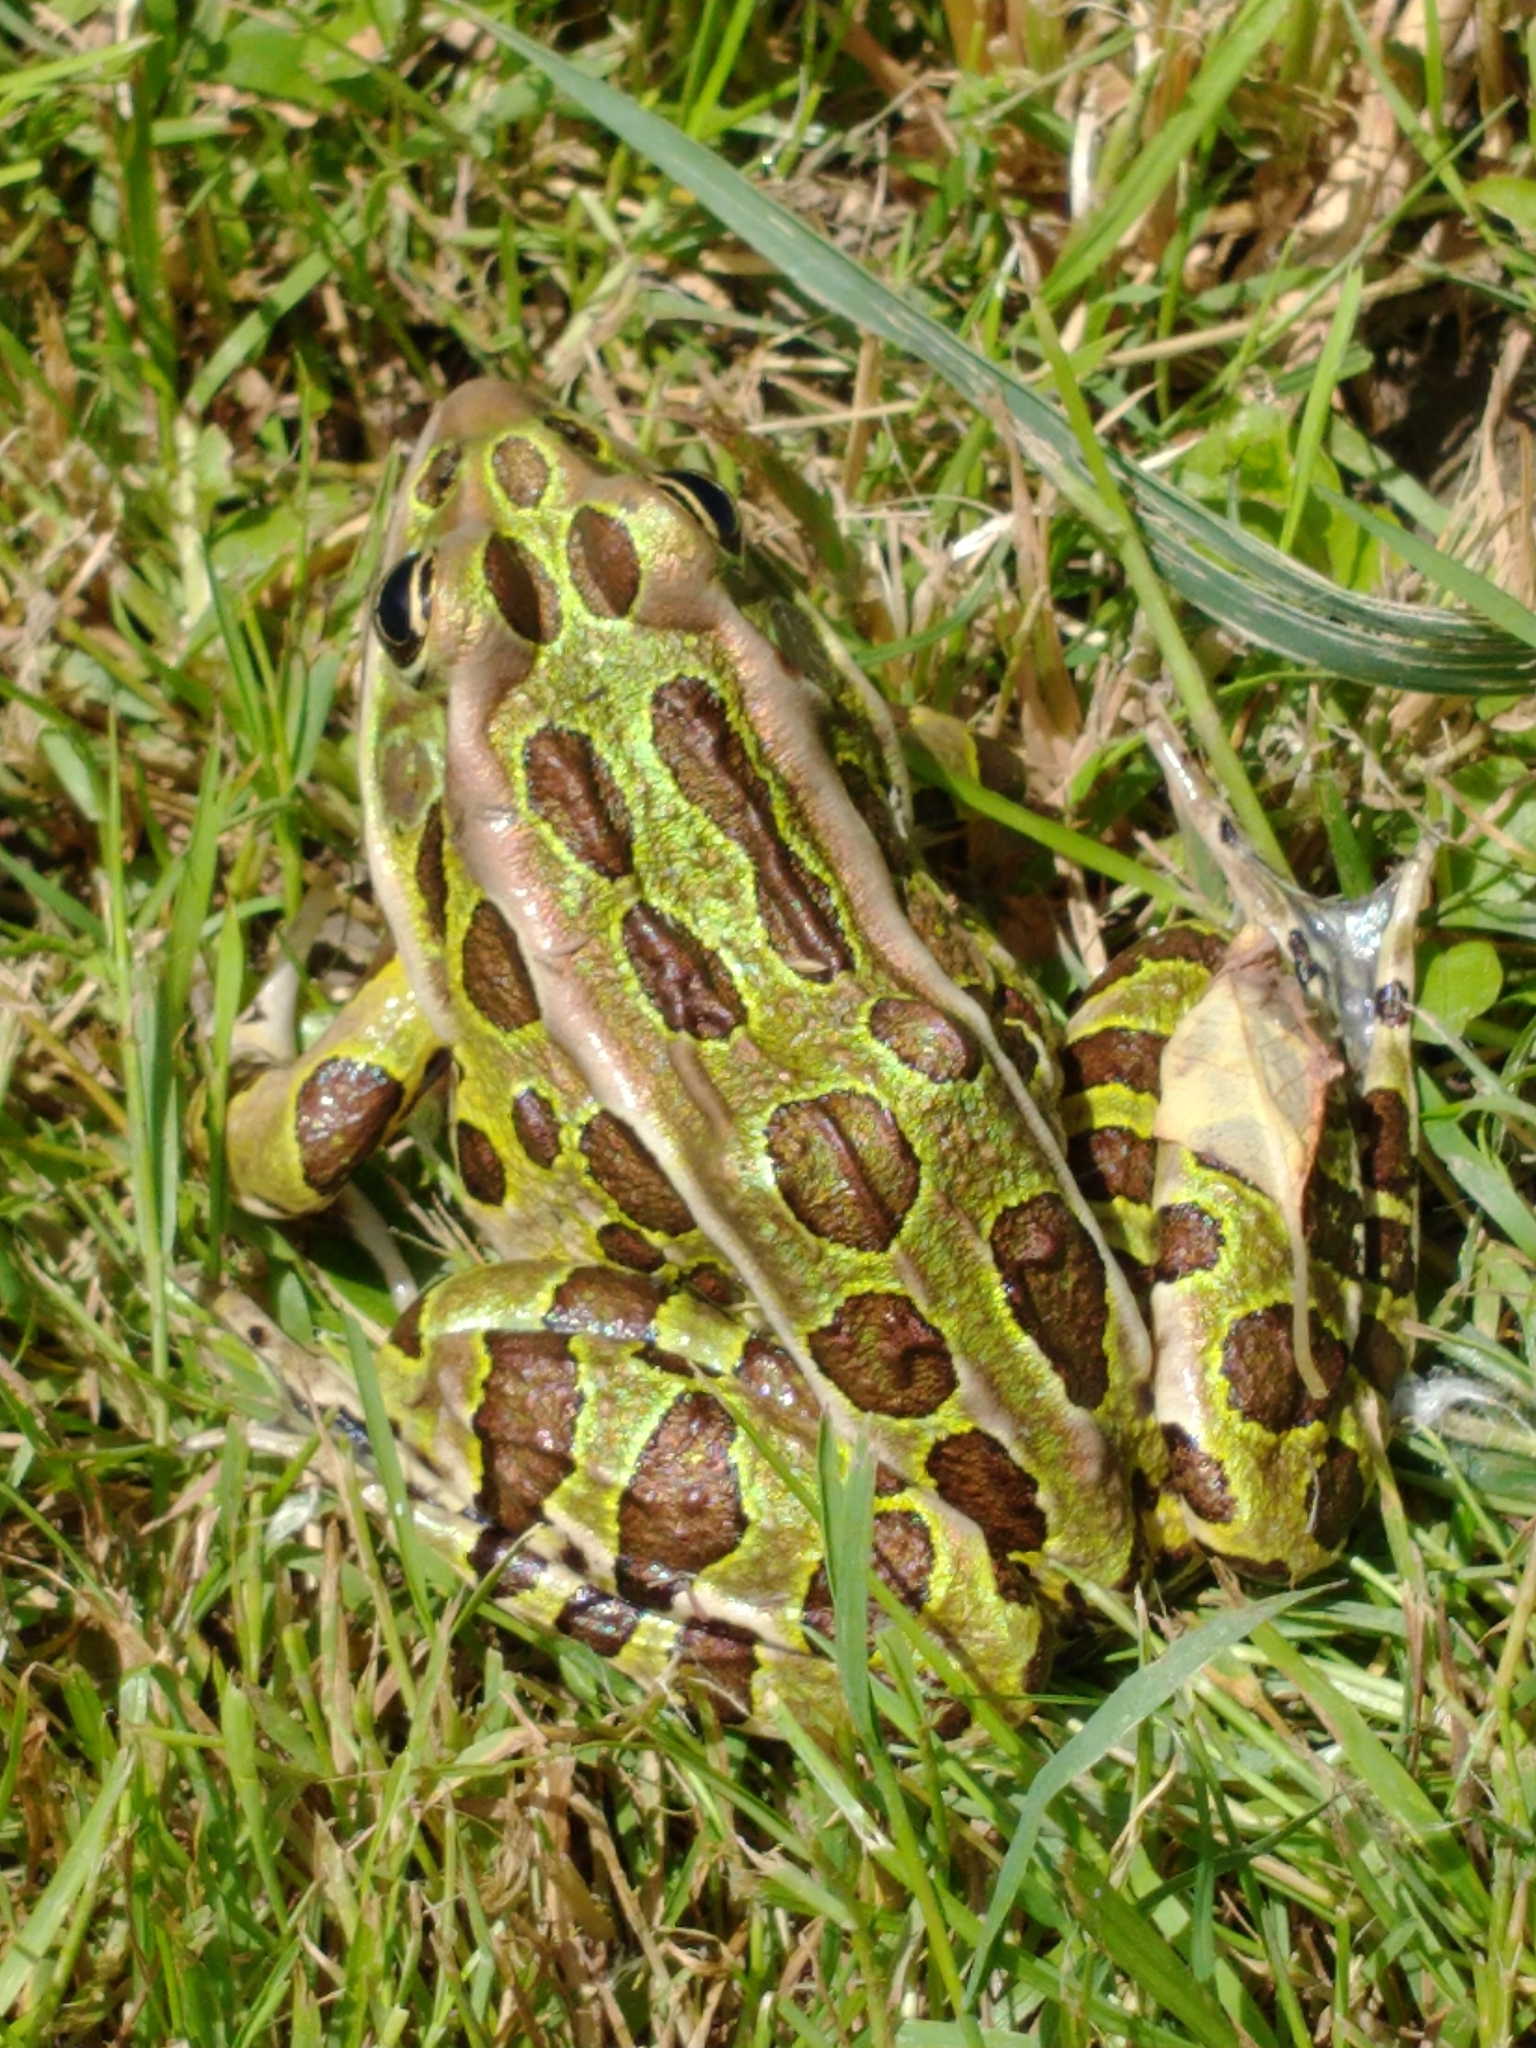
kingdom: Animalia
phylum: Chordata
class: Amphibia
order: Anura
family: Ranidae
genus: Lithobates
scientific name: Lithobates pipiens
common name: Northern leopard frog
